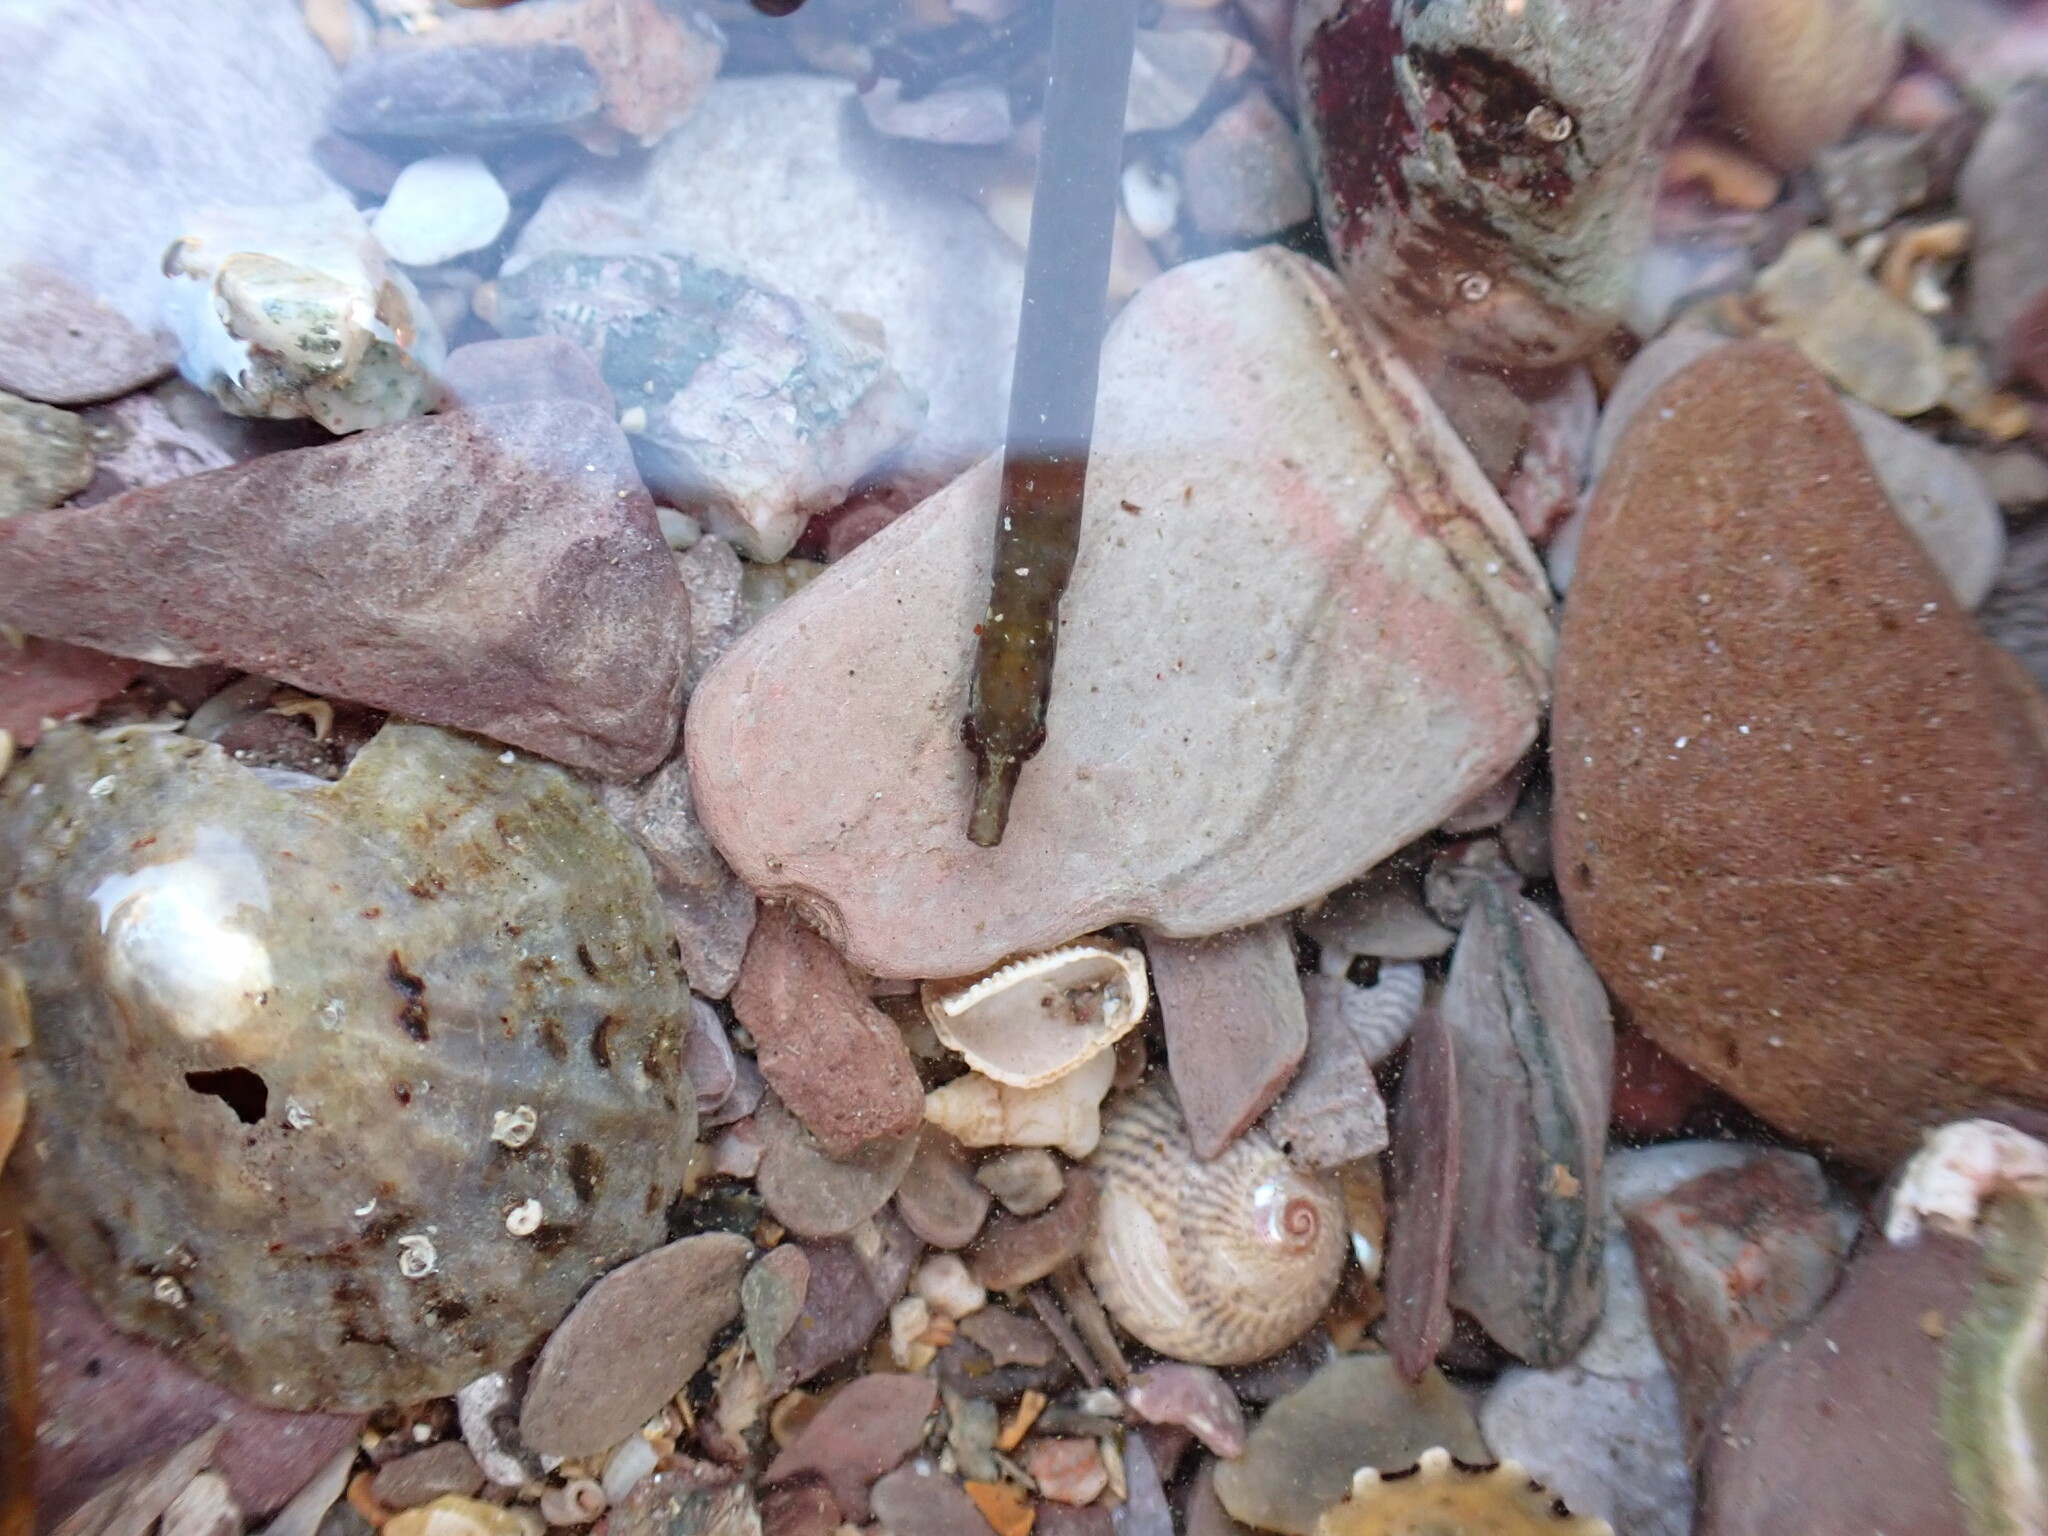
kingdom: Animalia
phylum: Chordata
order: Syngnathiformes
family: Syngnathidae
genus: Nerophis
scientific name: Nerophis lumbriciformis
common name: Worm pipefish
